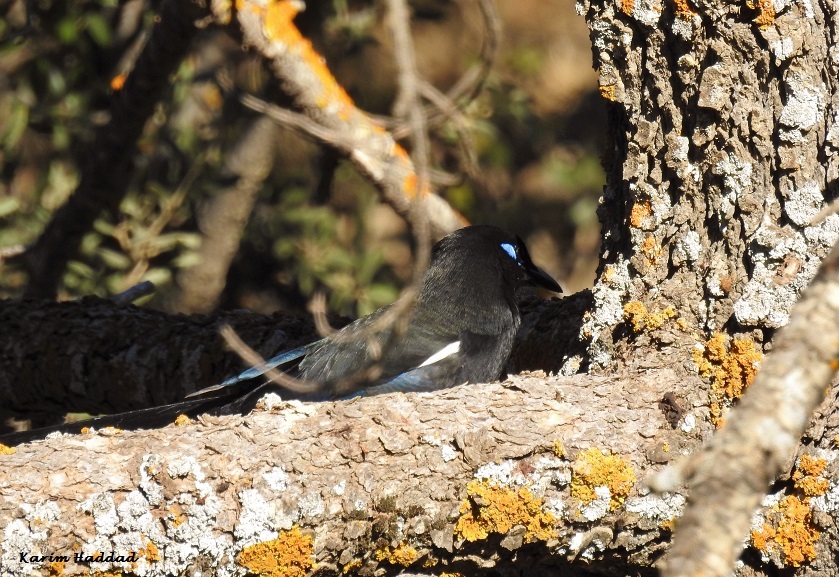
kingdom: Animalia
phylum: Chordata
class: Aves
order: Passeriformes
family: Corvidae
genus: Pica
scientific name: Pica mauritanica
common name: Maghreb magpie
